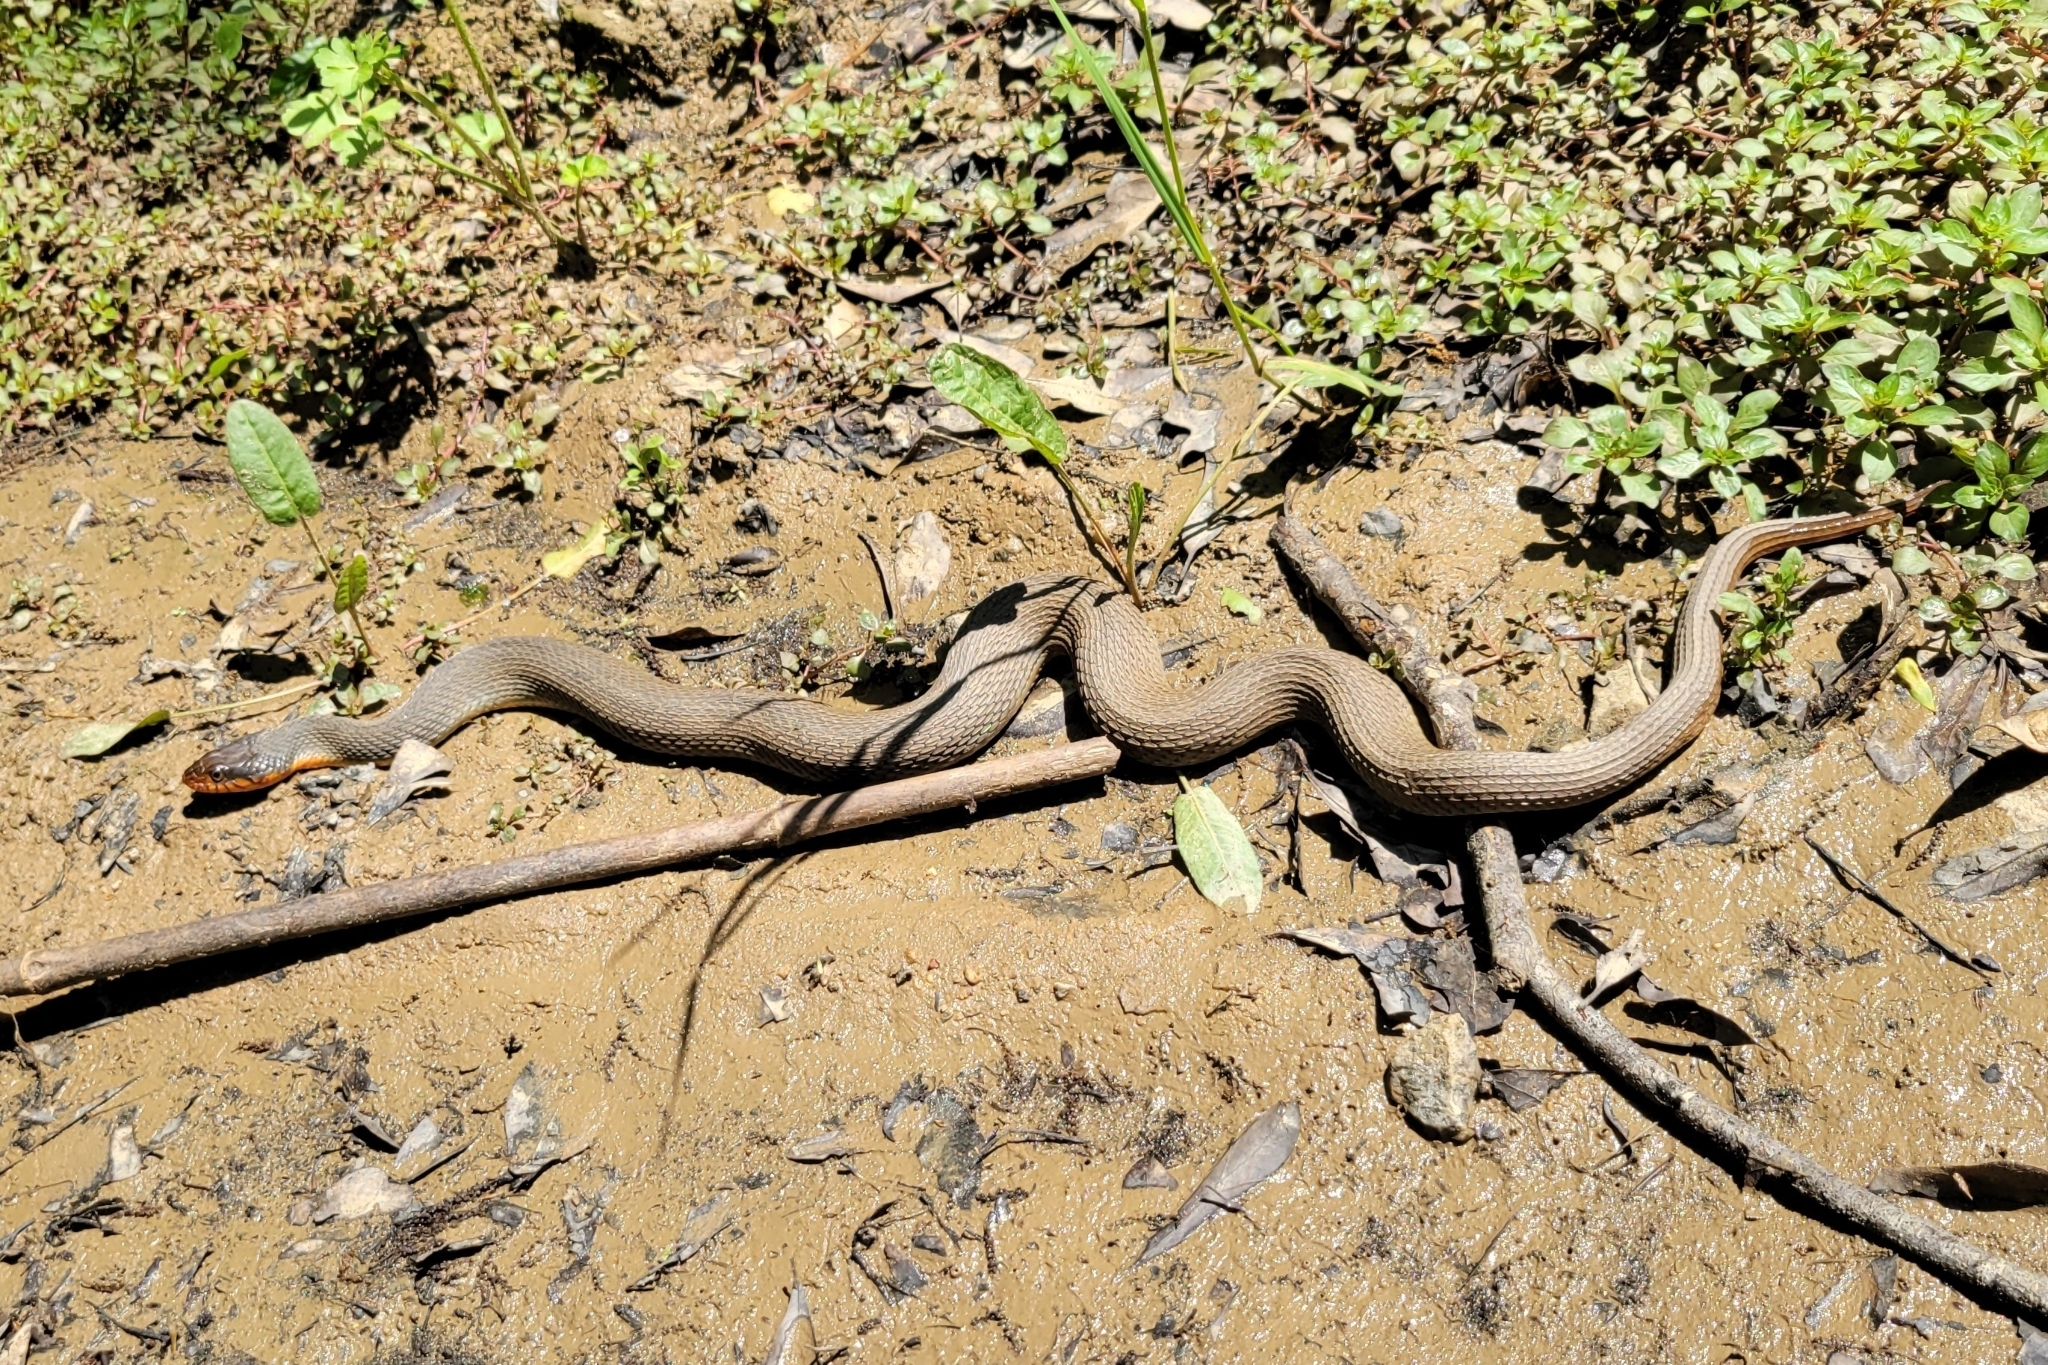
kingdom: Animalia
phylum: Chordata
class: Squamata
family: Colubridae
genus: Nerodia
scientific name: Nerodia erythrogaster
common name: Plainbelly water snake
